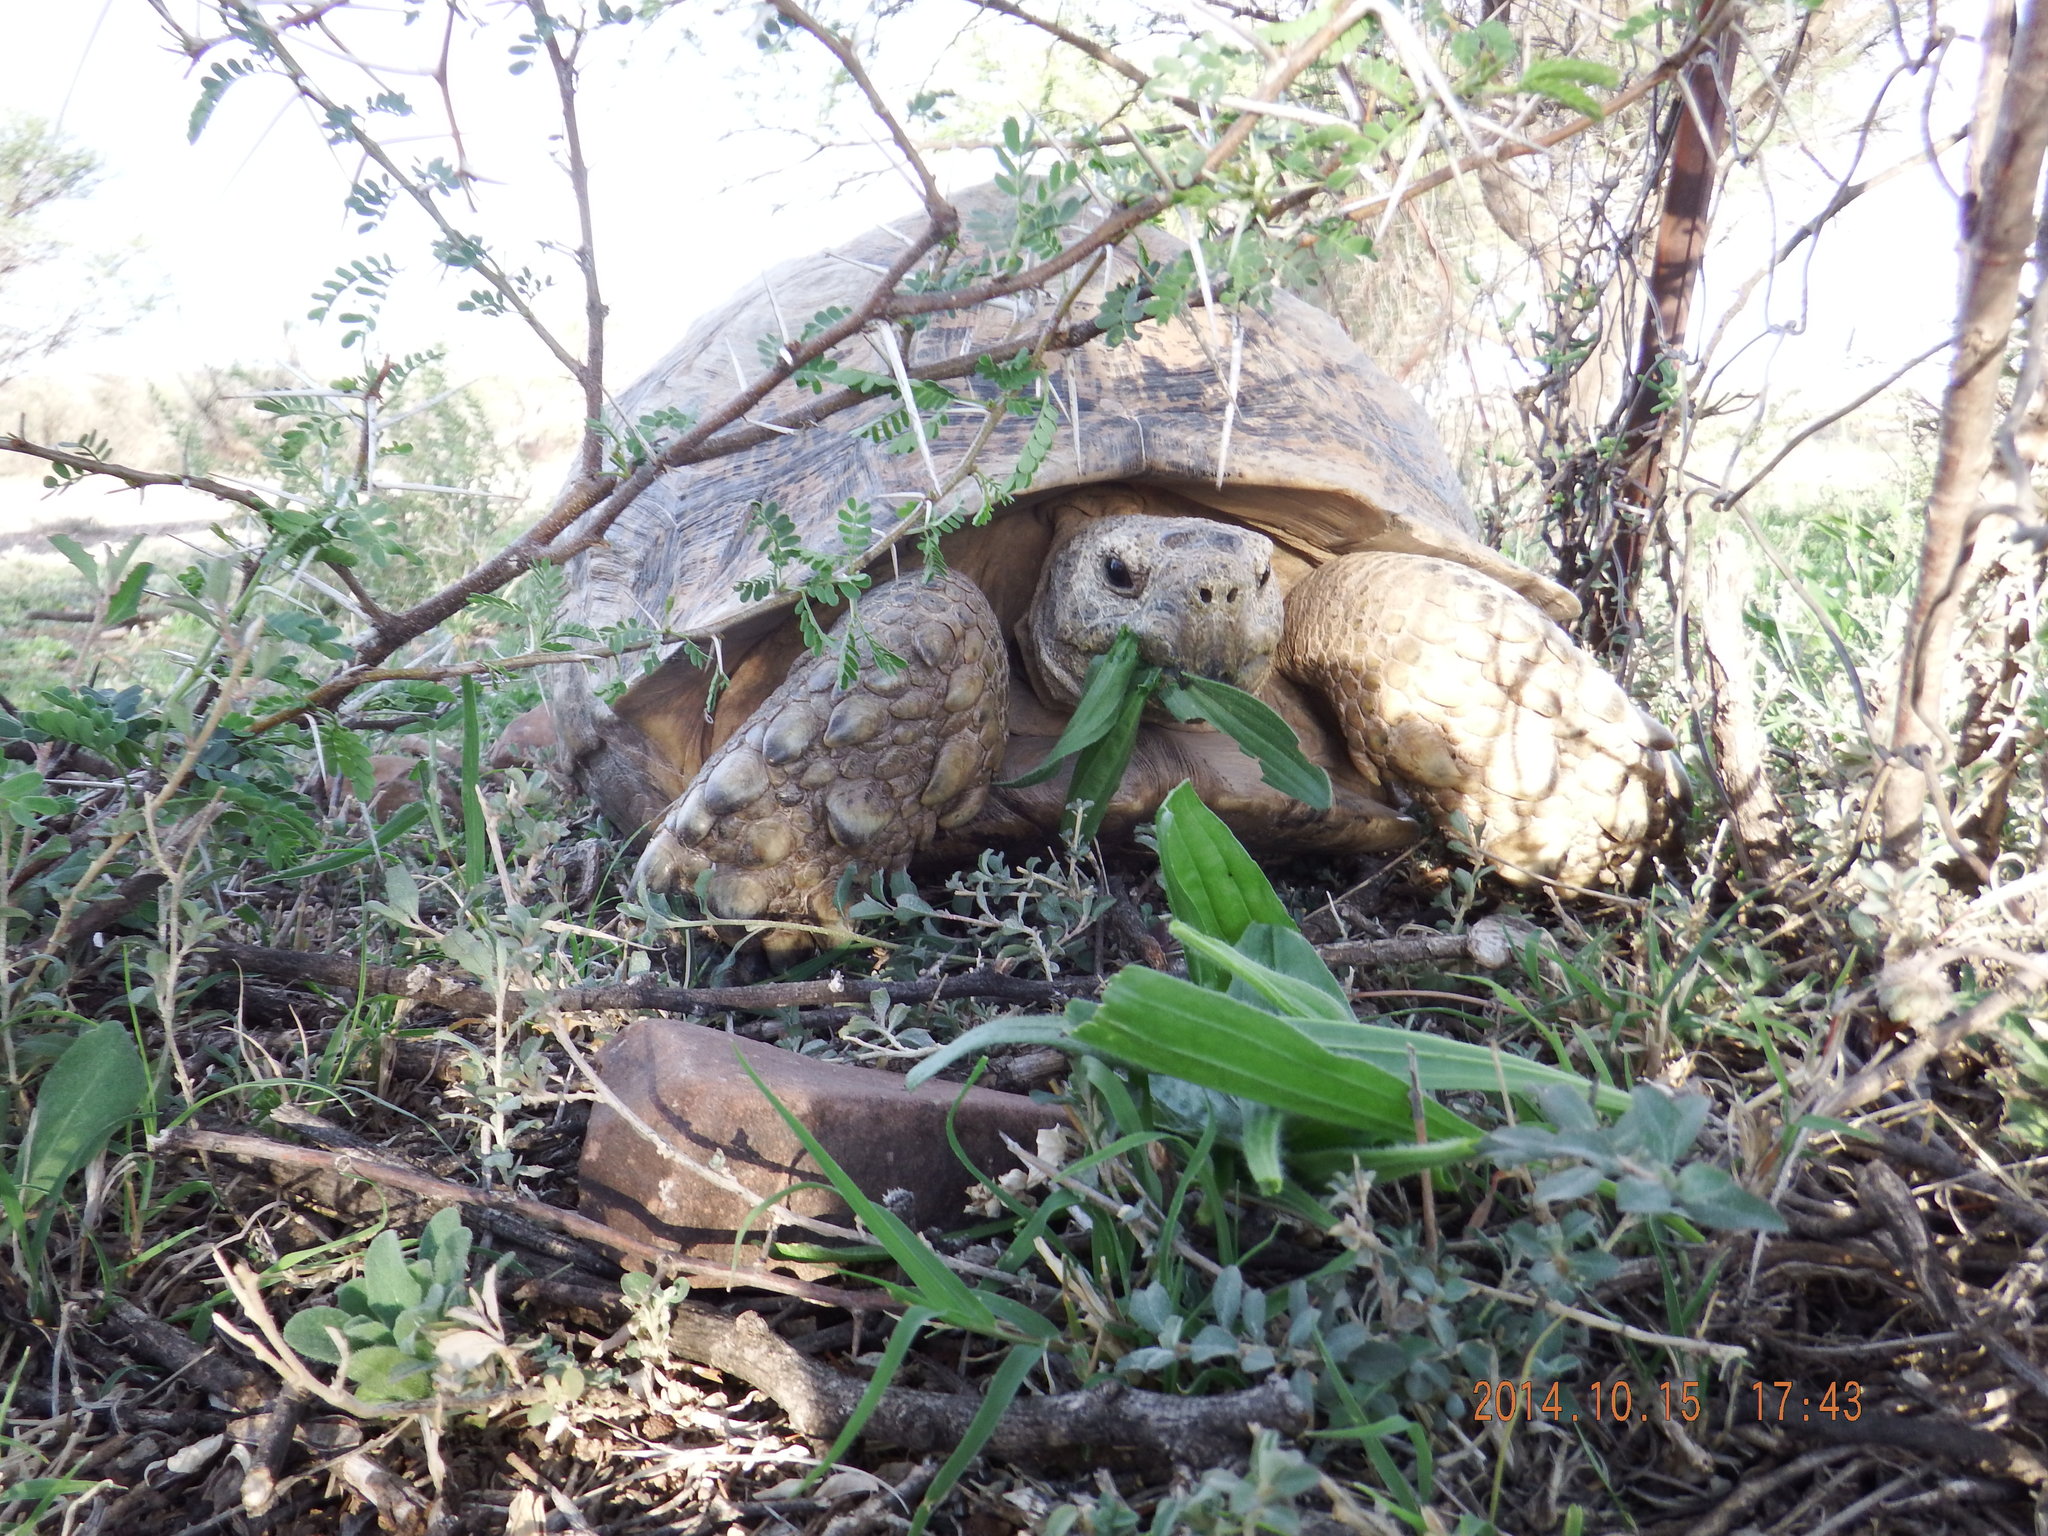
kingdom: Animalia
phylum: Chordata
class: Testudines
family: Testudinidae
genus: Stigmochelys
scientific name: Stigmochelys pardalis
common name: Leopard tortoise
